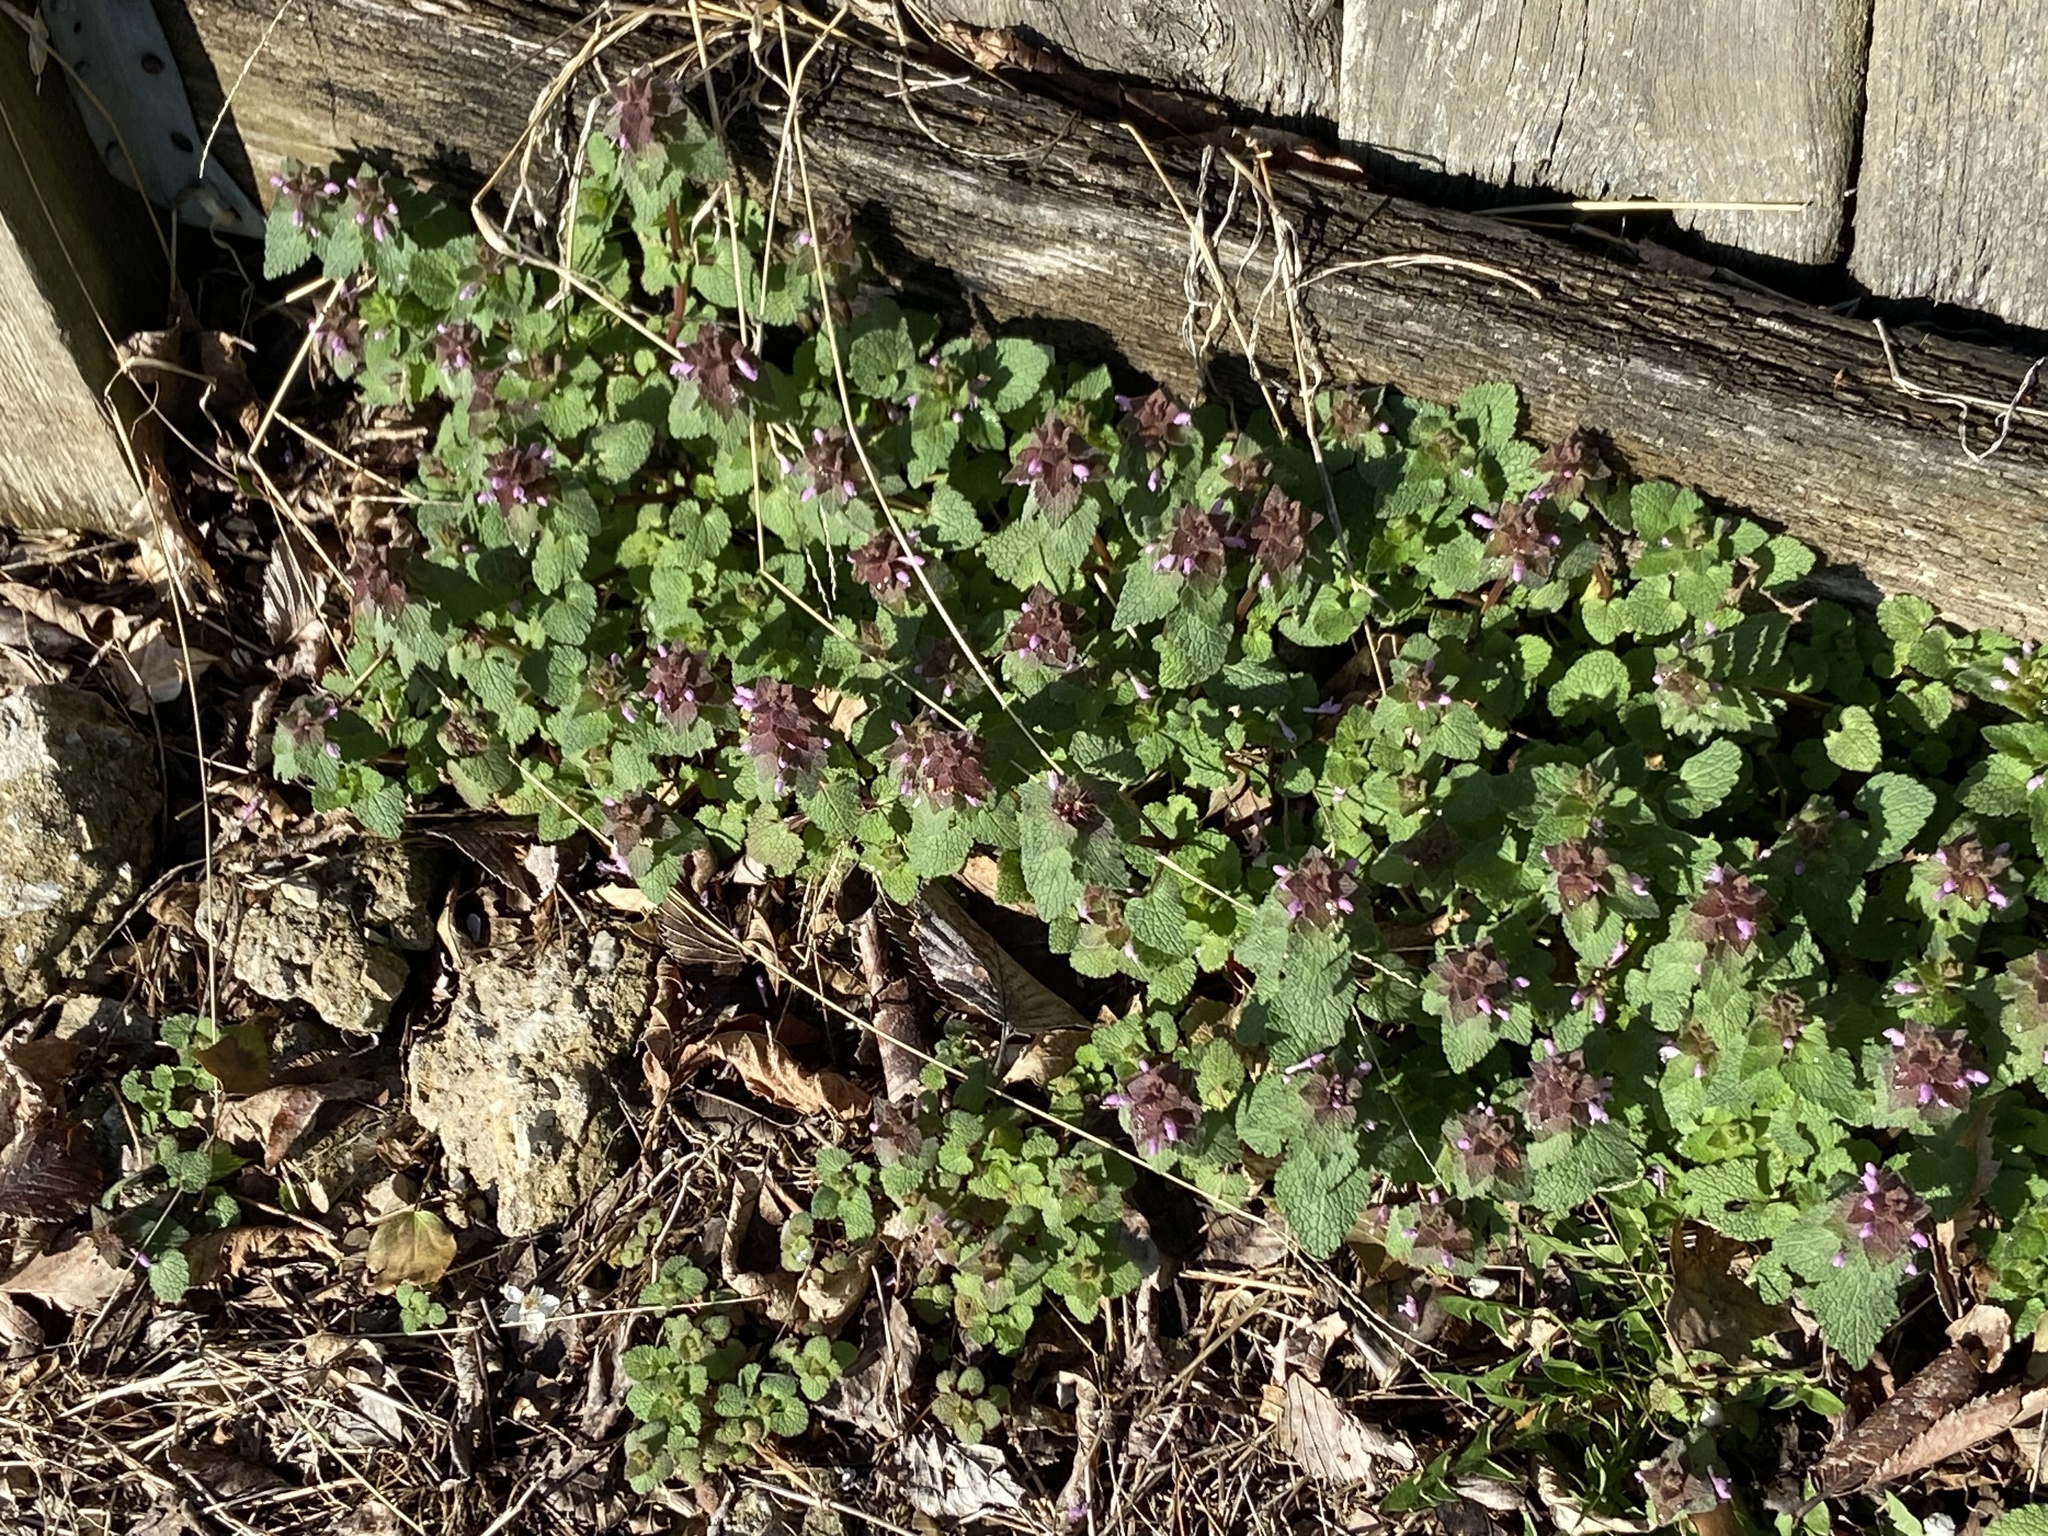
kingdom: Plantae
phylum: Tracheophyta
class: Magnoliopsida
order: Lamiales
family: Lamiaceae
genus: Lamium
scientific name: Lamium purpureum
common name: Red dead-nettle
